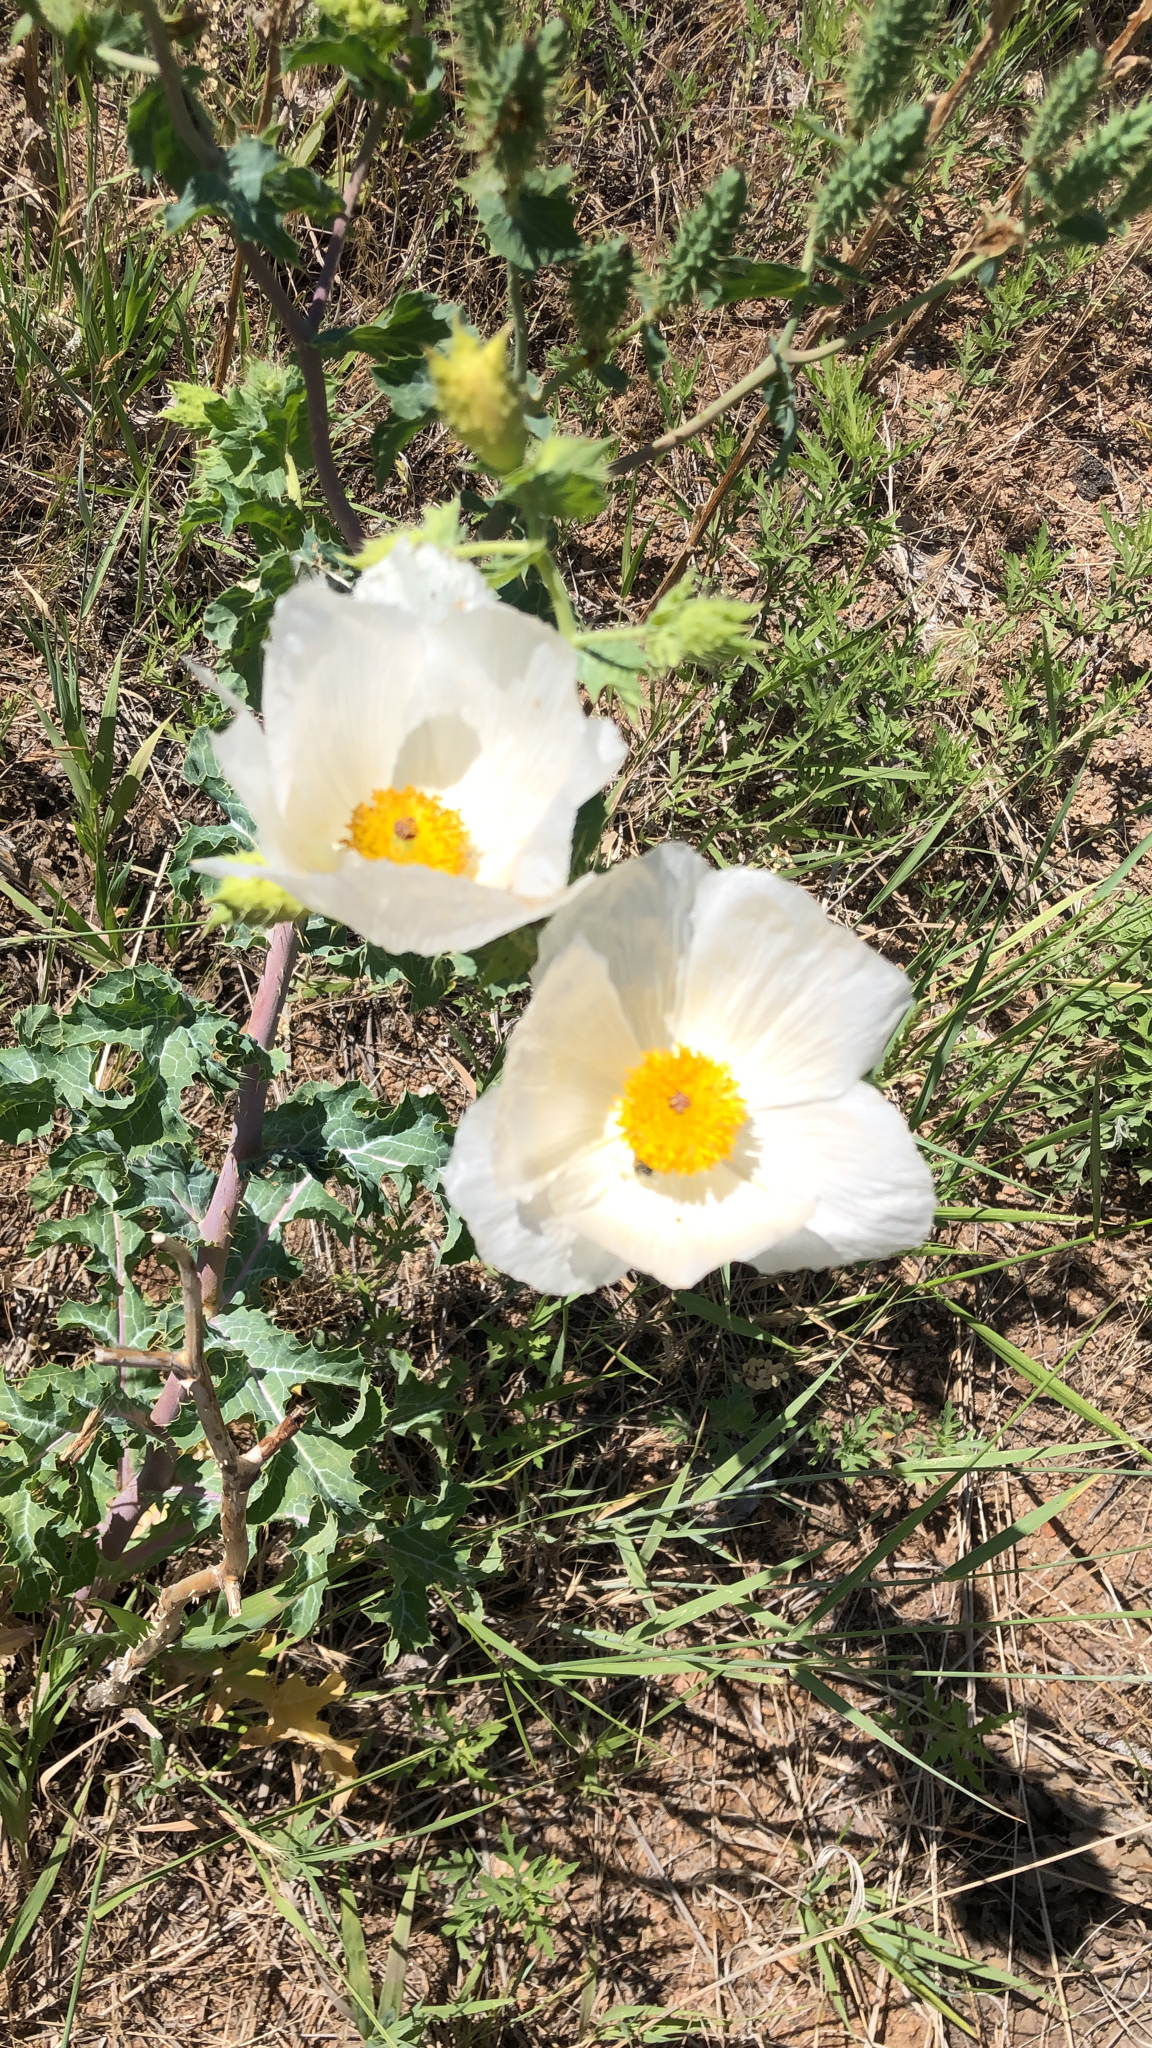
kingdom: Plantae
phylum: Tracheophyta
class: Magnoliopsida
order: Ranunculales
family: Papaveraceae
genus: Argemone
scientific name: Argemone polyanthemos
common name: Plains prickly-poppy
